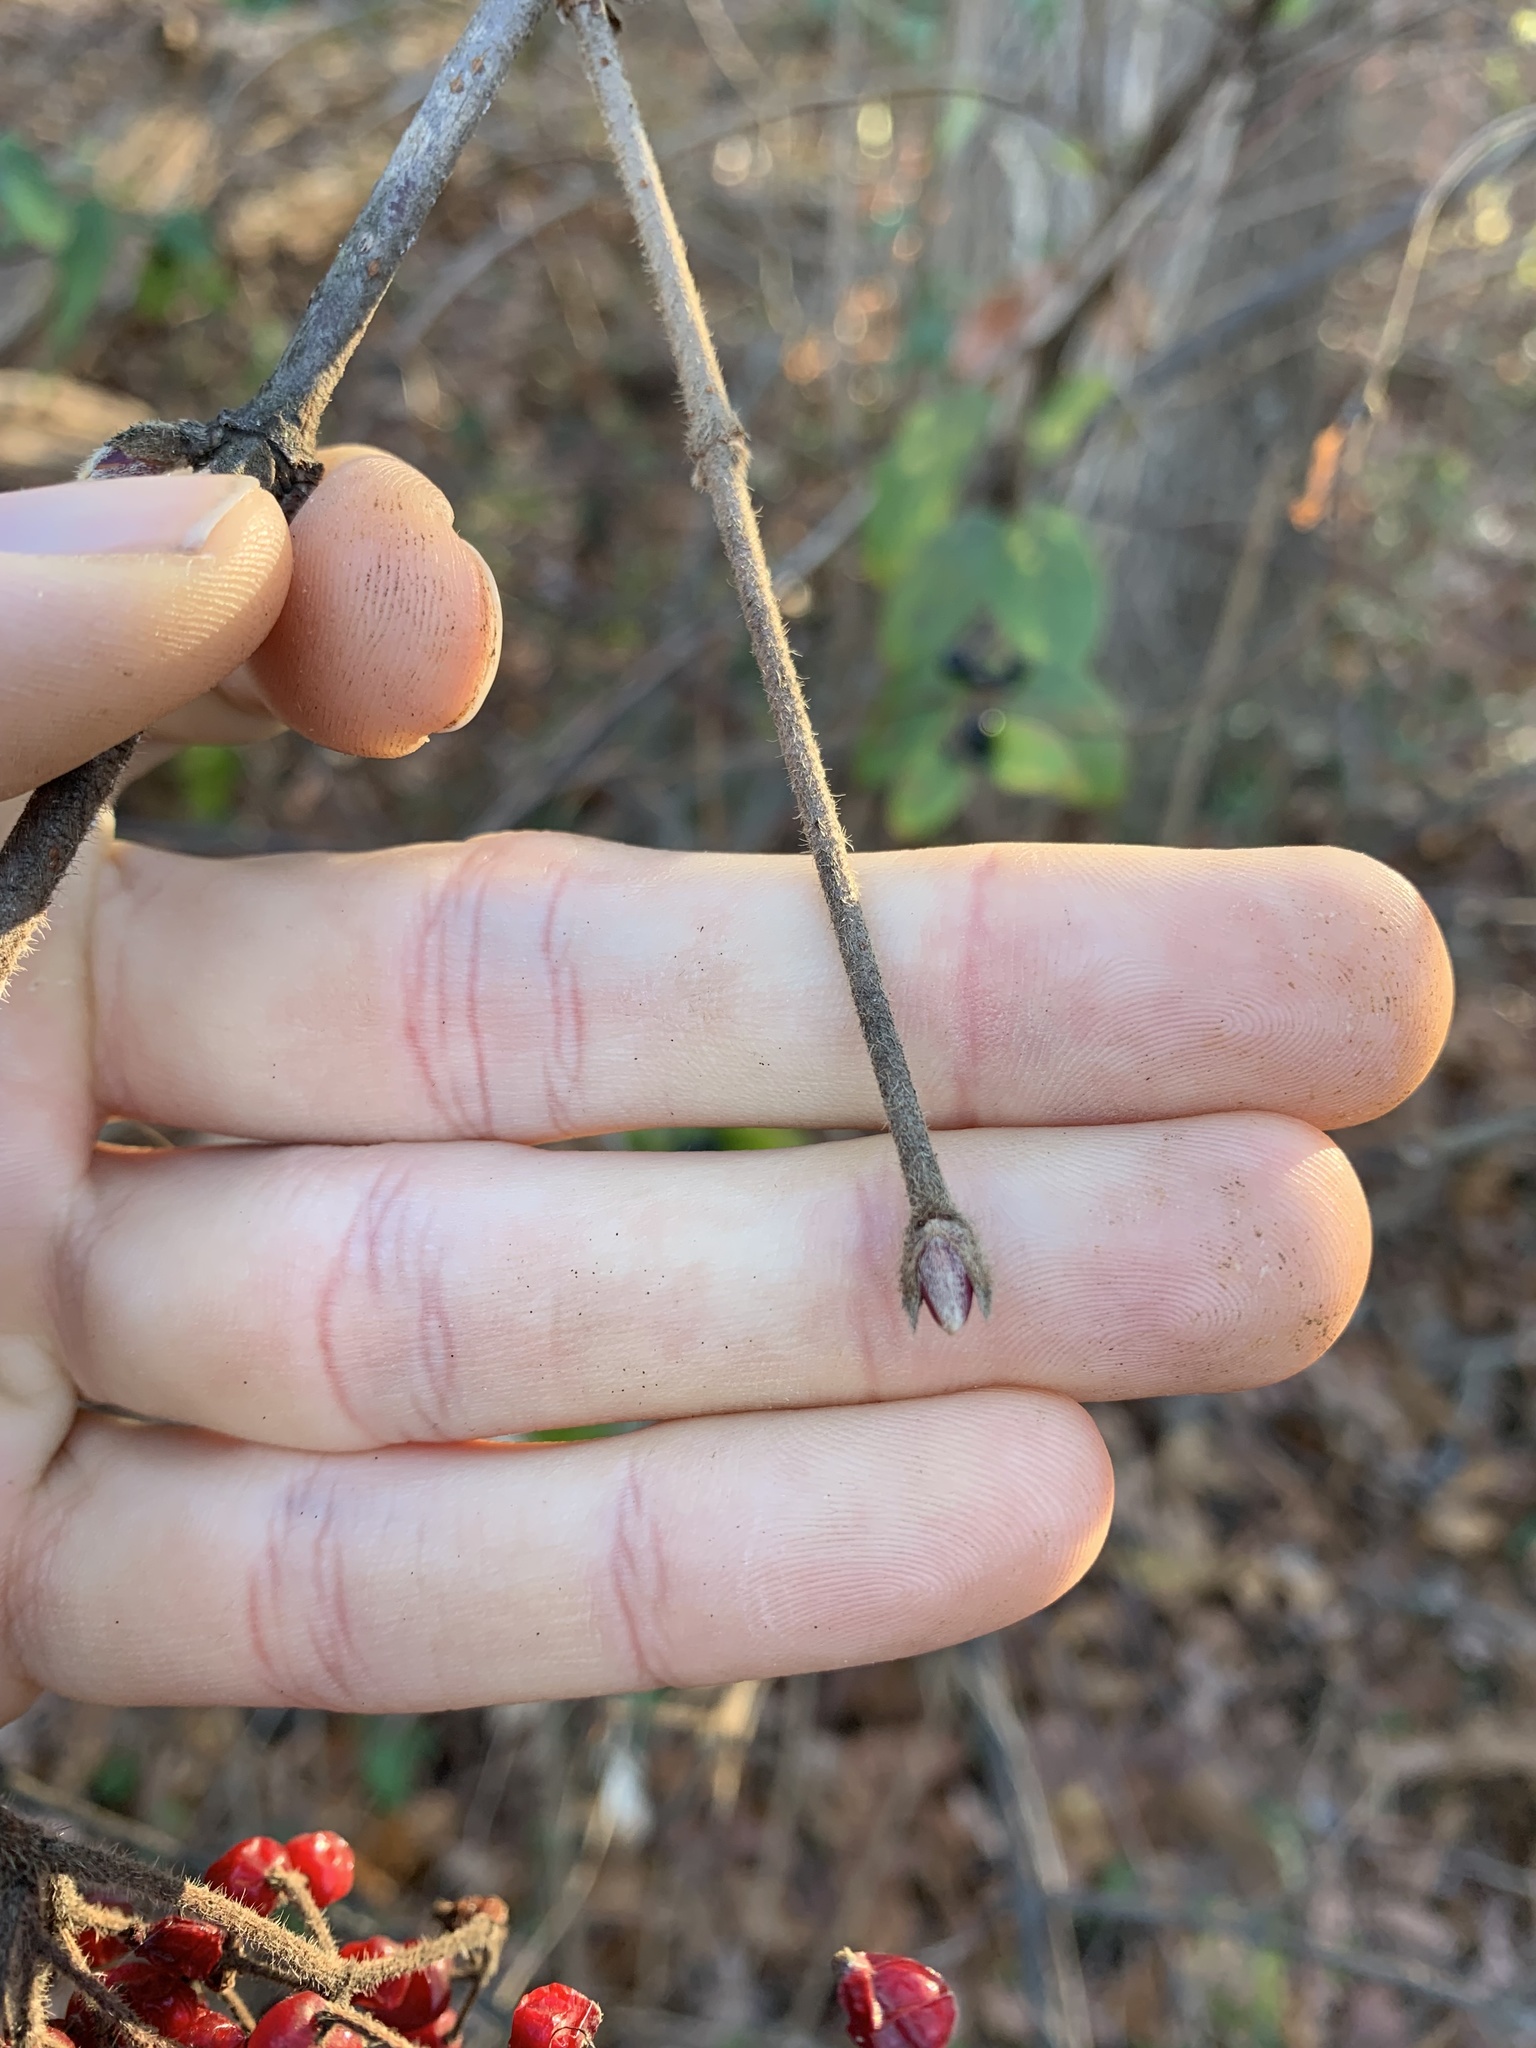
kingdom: Plantae
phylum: Tracheophyta
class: Magnoliopsida
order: Dipsacales
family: Viburnaceae
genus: Viburnum
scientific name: Viburnum dilatatum
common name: Linden arrowwood
